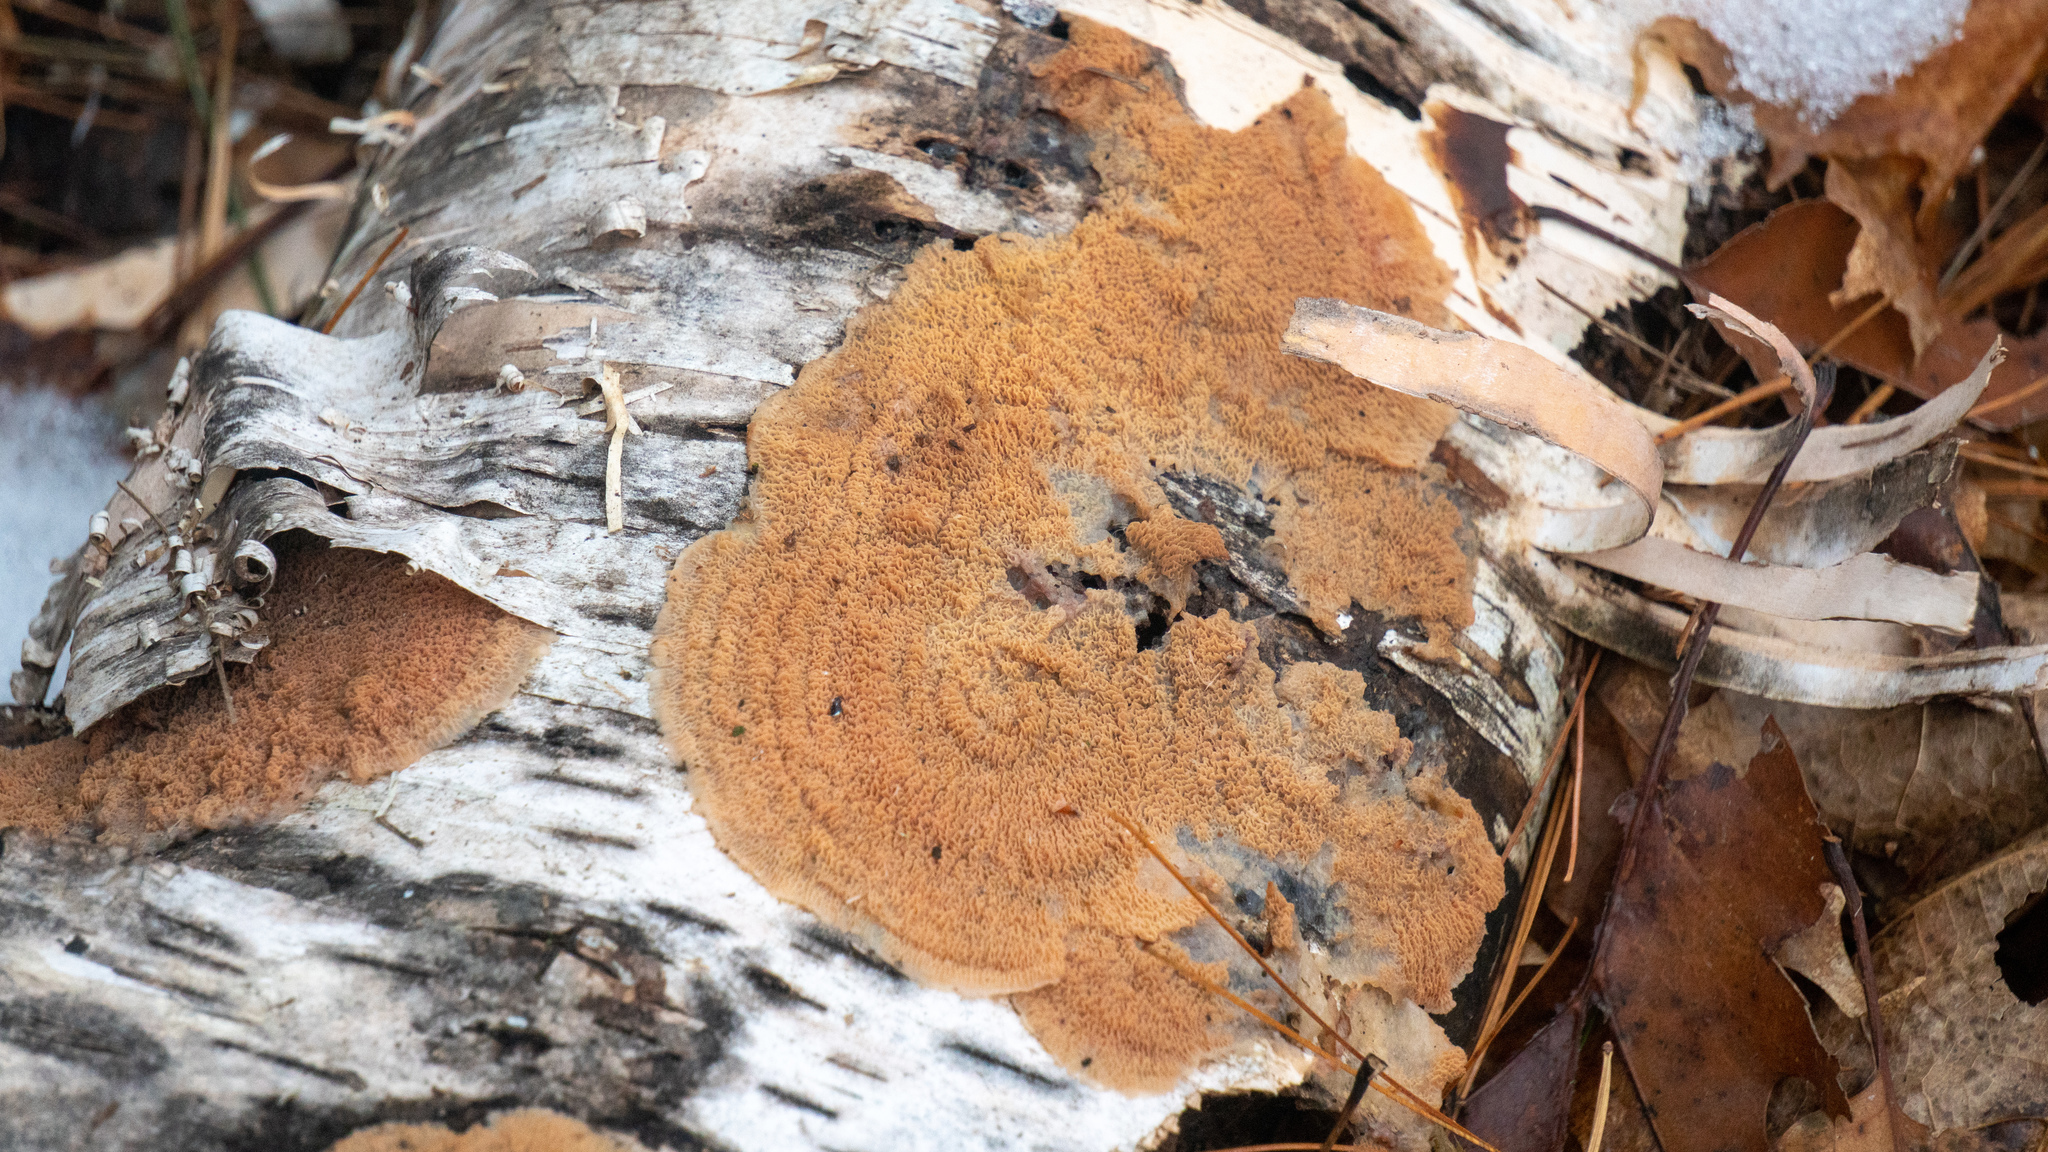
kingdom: Fungi
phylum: Basidiomycota
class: Agaricomycetes
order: Polyporales
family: Meruliaceae
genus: Phlebia
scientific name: Phlebia tremellosa
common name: Jelly rot
